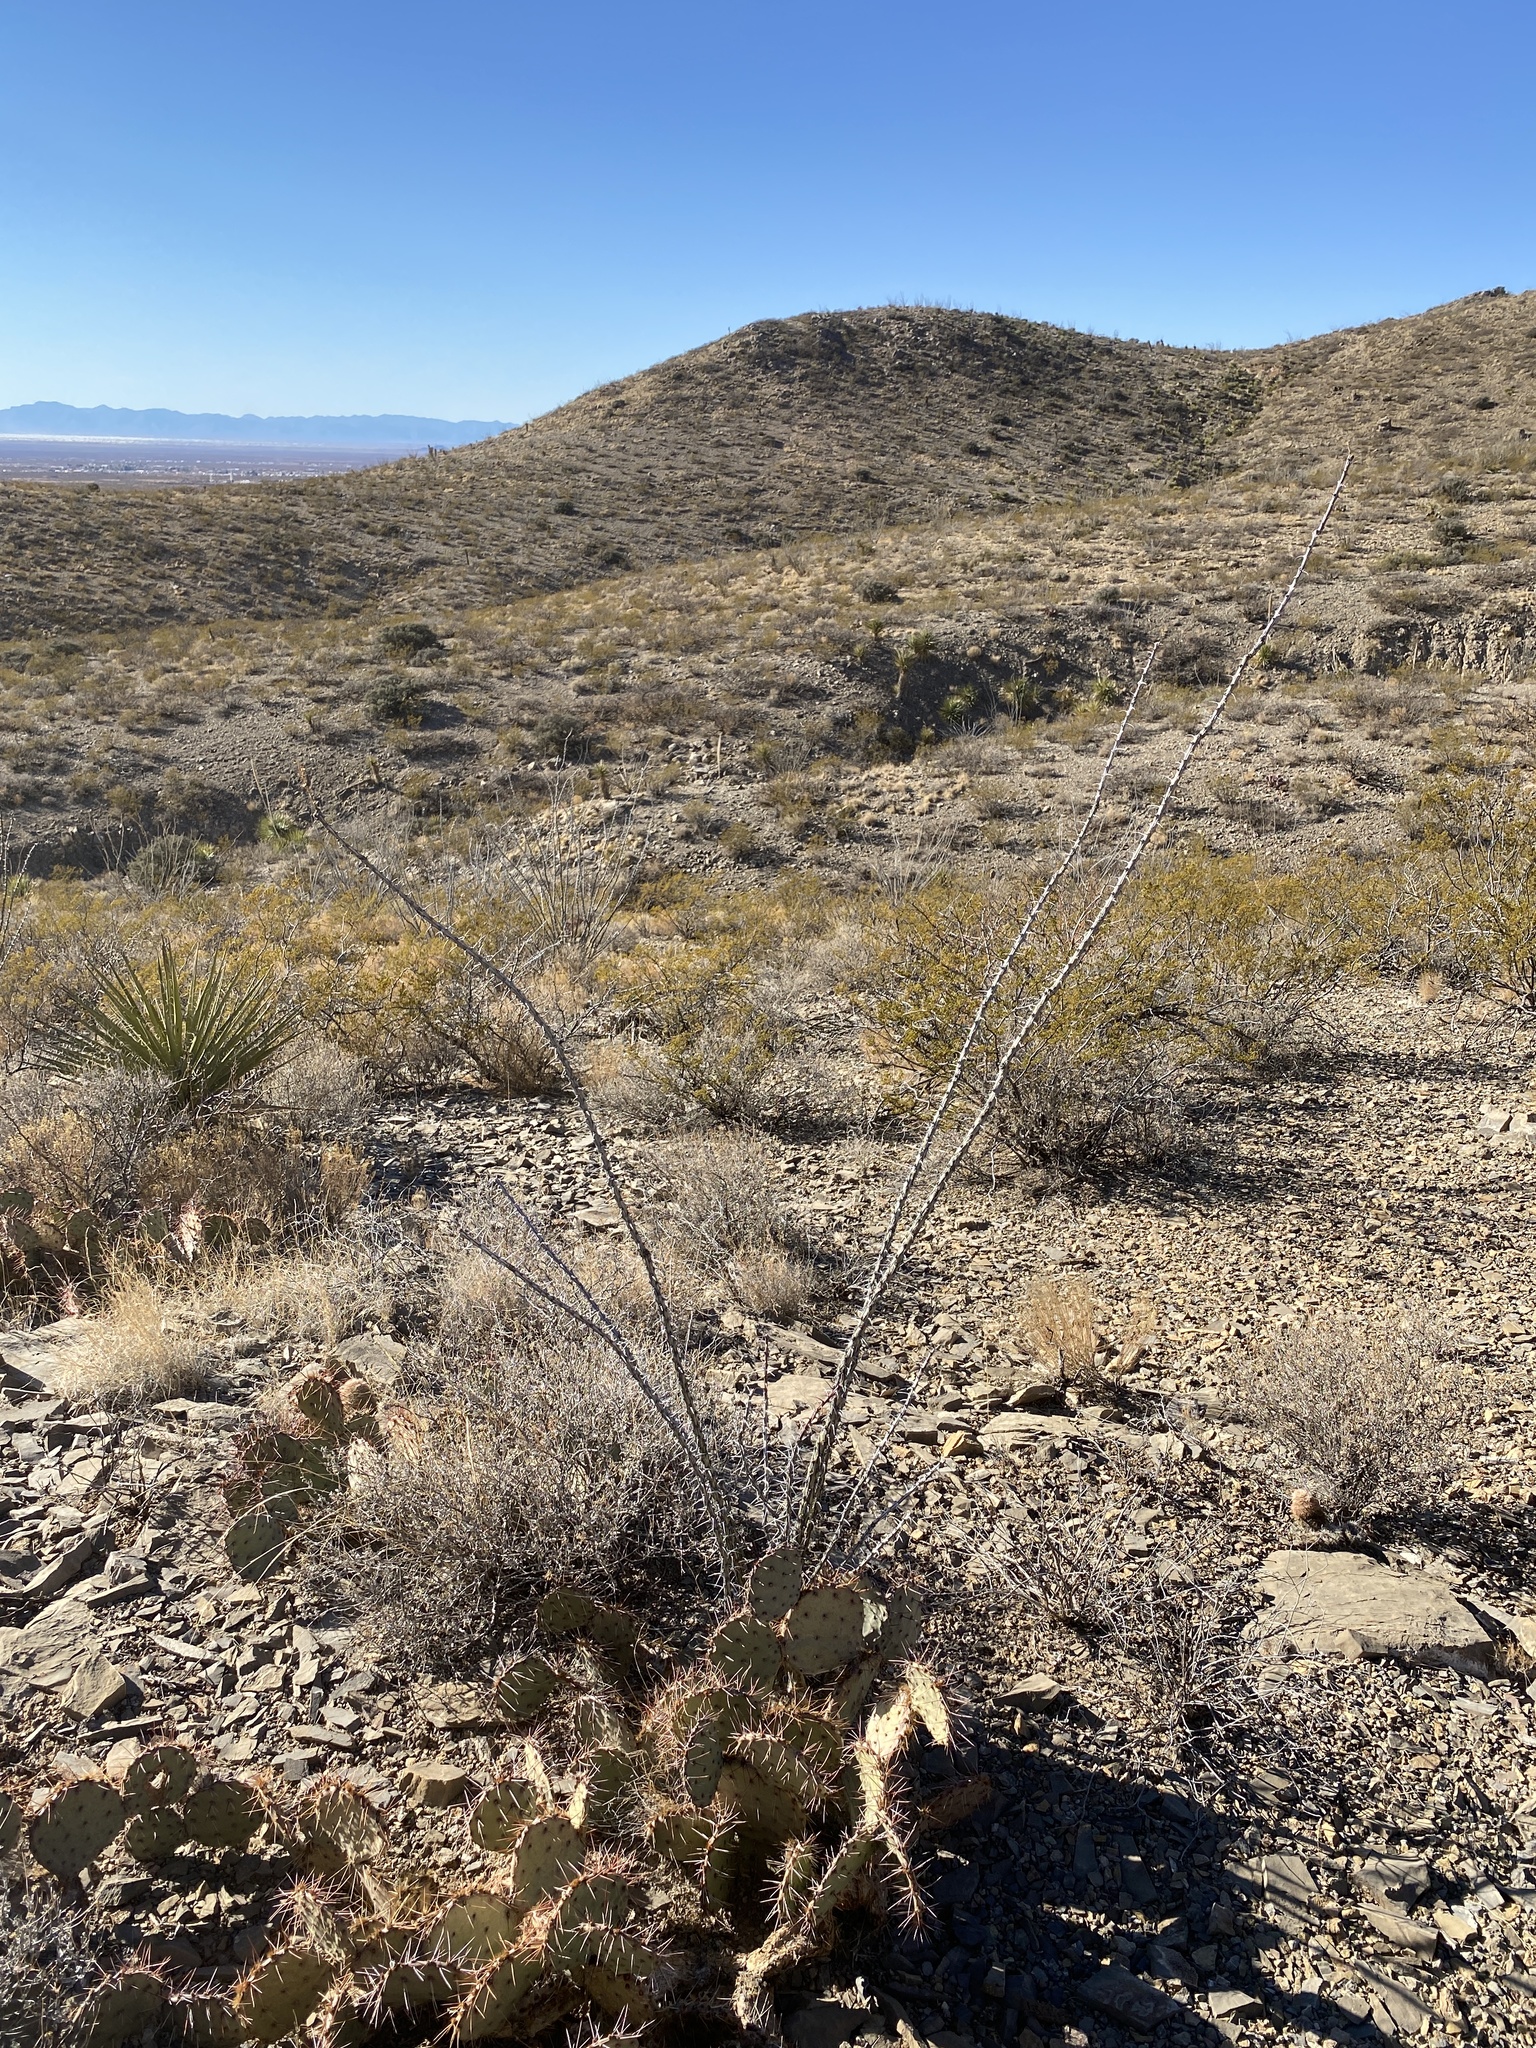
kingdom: Plantae
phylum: Tracheophyta
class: Magnoliopsida
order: Ericales
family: Fouquieriaceae
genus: Fouquieria
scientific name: Fouquieria splendens
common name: Vine-cactus
